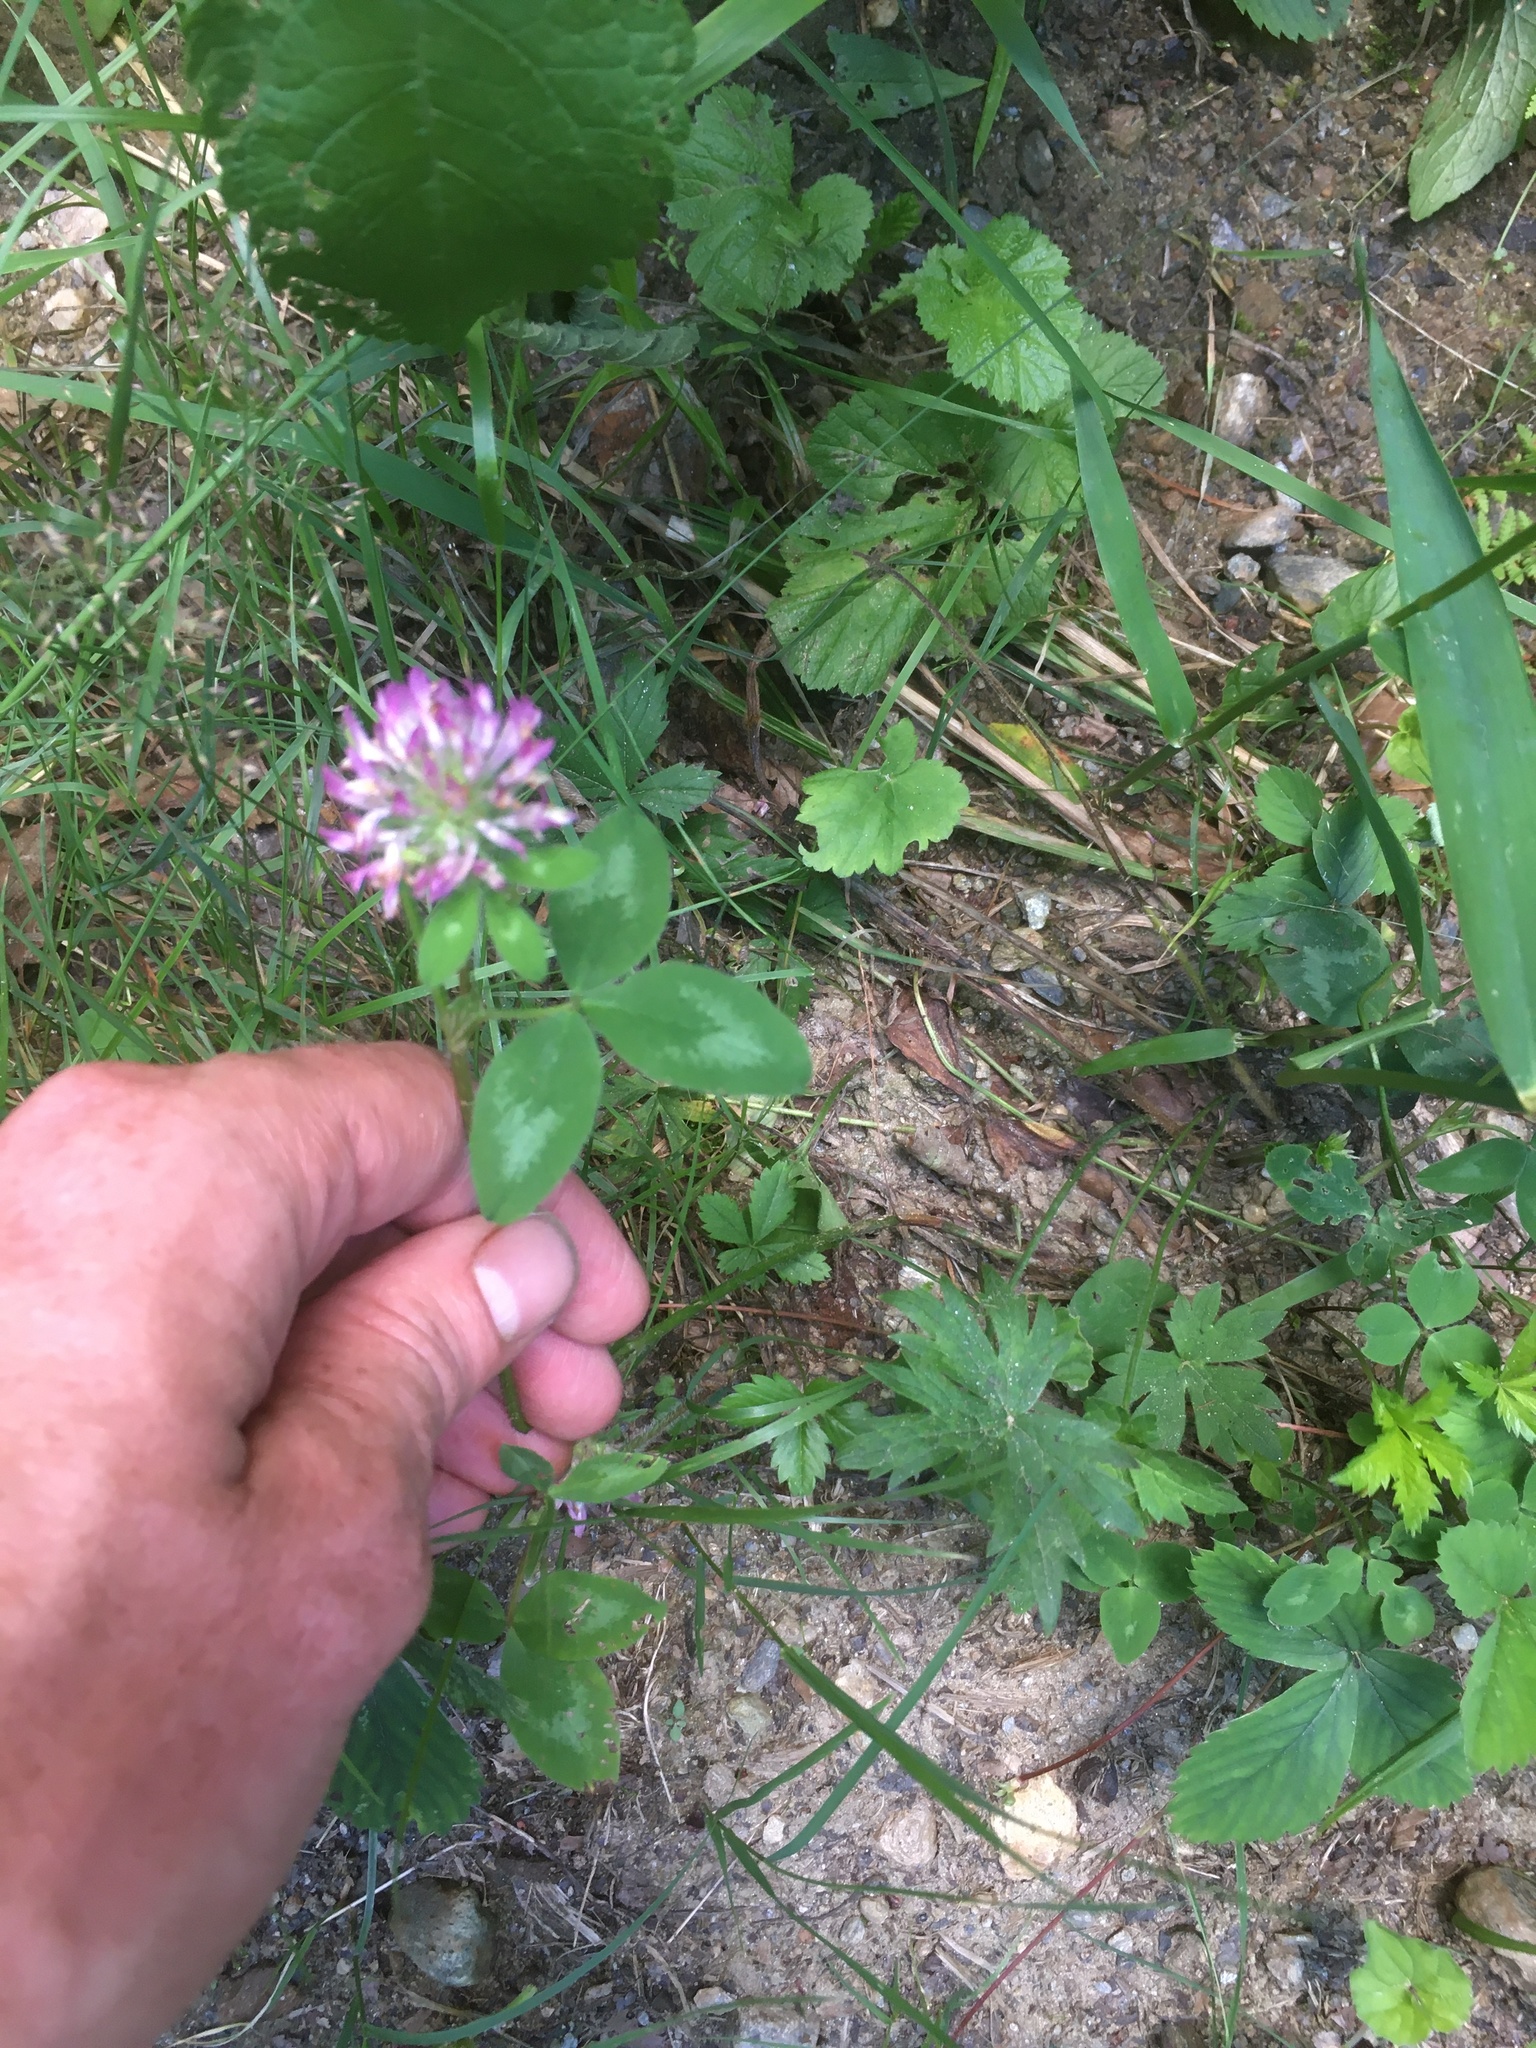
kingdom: Plantae
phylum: Tracheophyta
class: Magnoliopsida
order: Fabales
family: Fabaceae
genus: Trifolium
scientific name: Trifolium pratense
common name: Red clover
